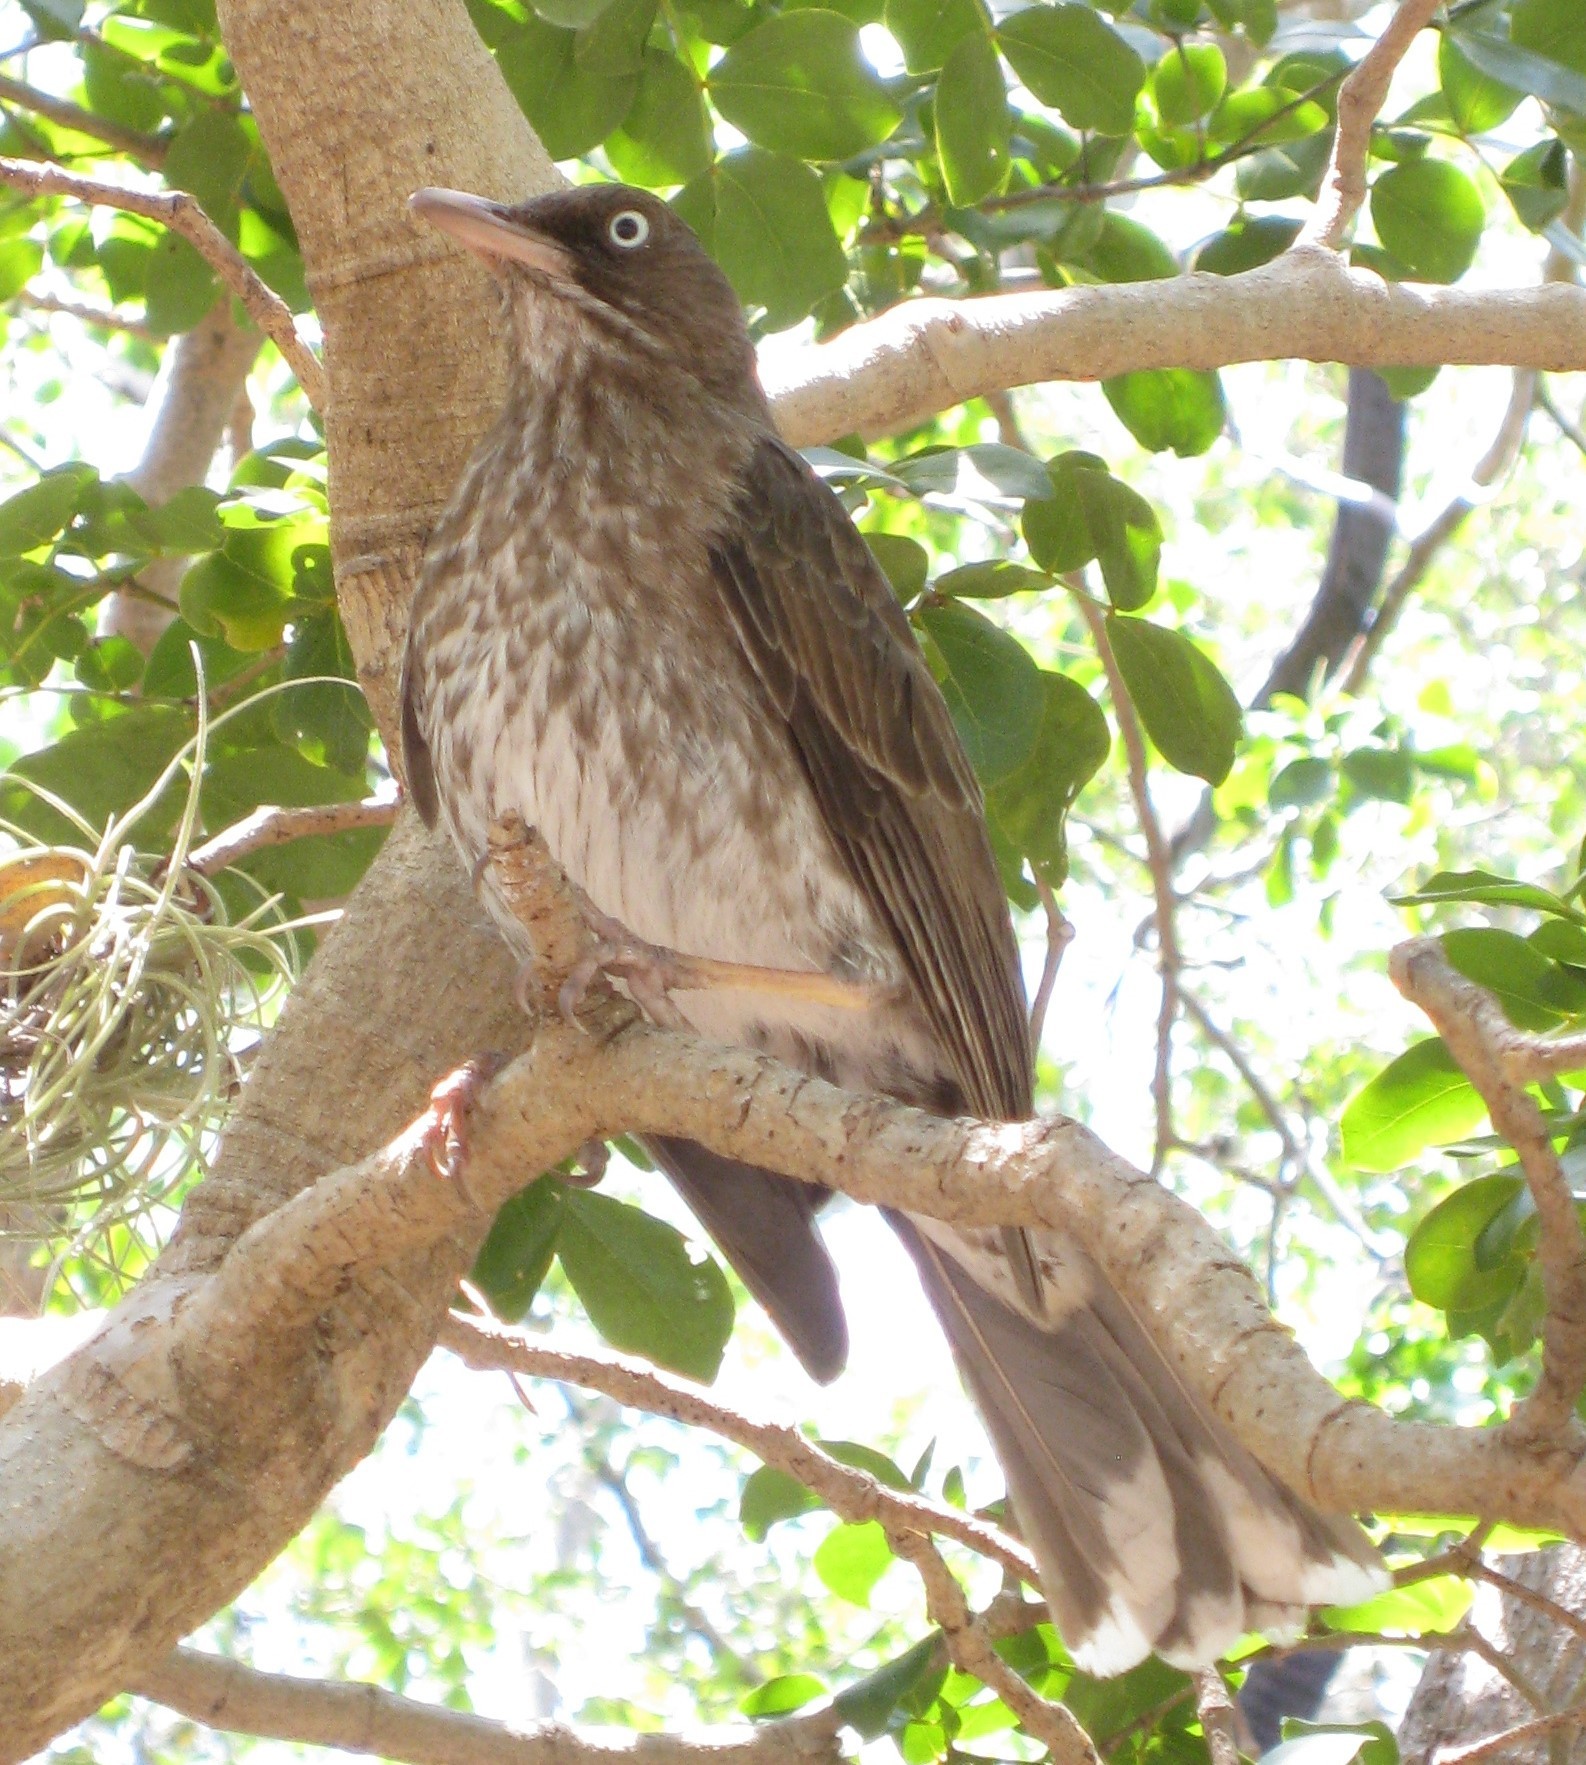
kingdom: Animalia
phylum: Chordata
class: Aves
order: Passeriformes
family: Mimidae
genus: Margarops
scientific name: Margarops fuscatus
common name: Pearly-eyed thrasher
